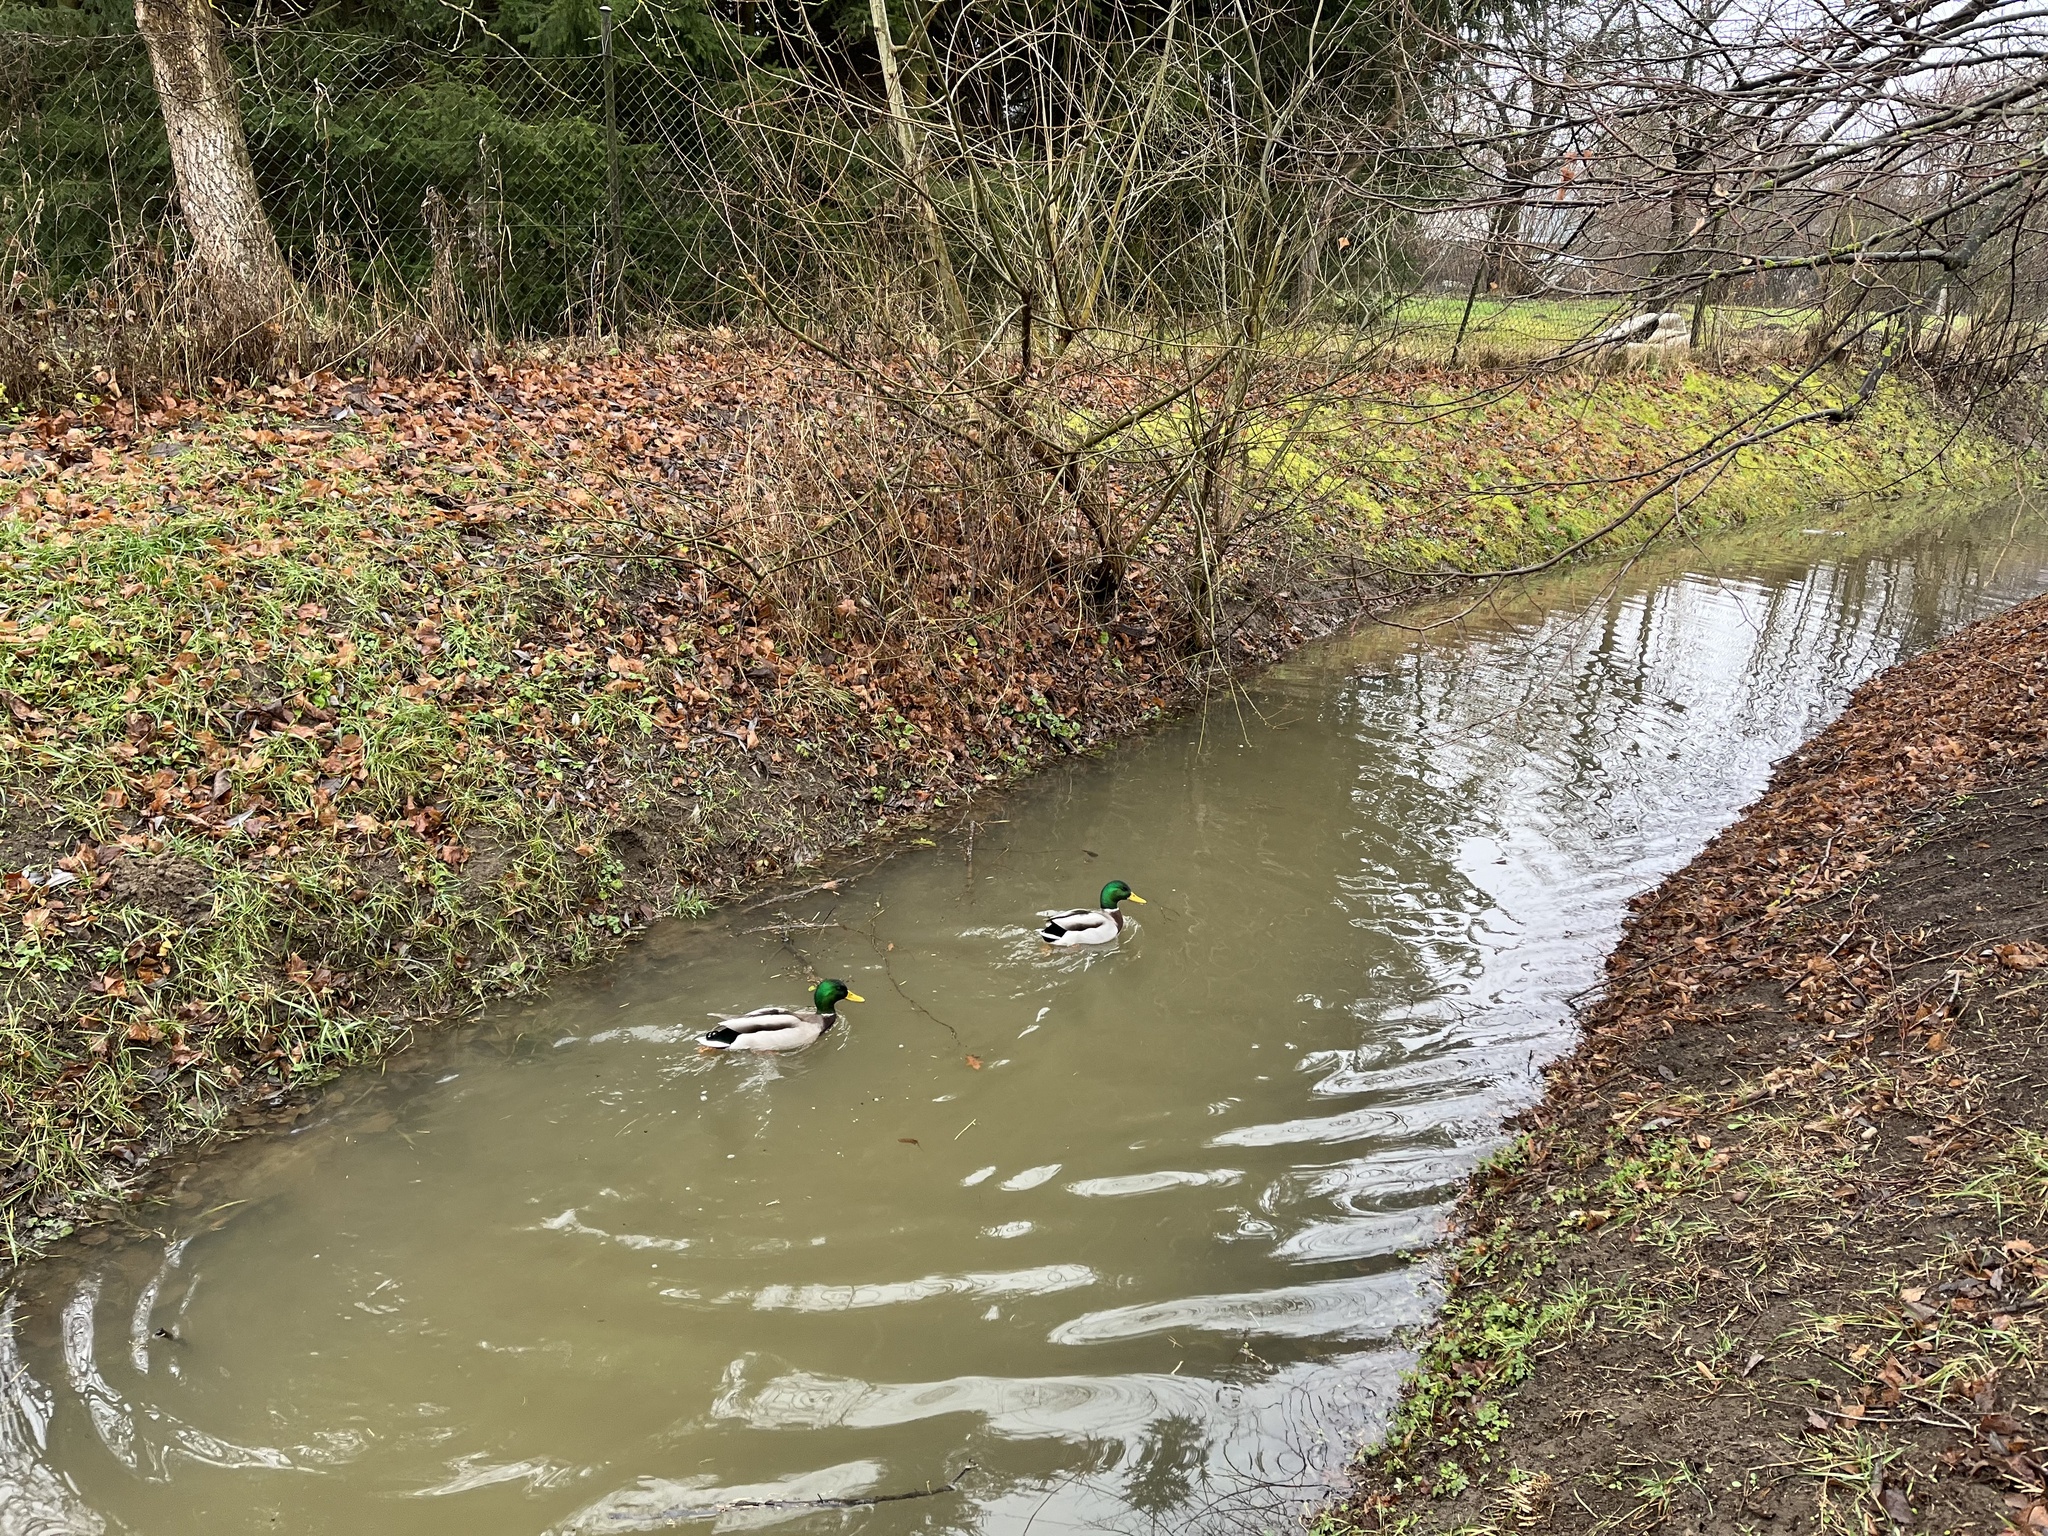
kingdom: Animalia
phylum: Chordata
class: Aves
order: Anseriformes
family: Anatidae
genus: Anas
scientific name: Anas platyrhynchos
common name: Mallard
